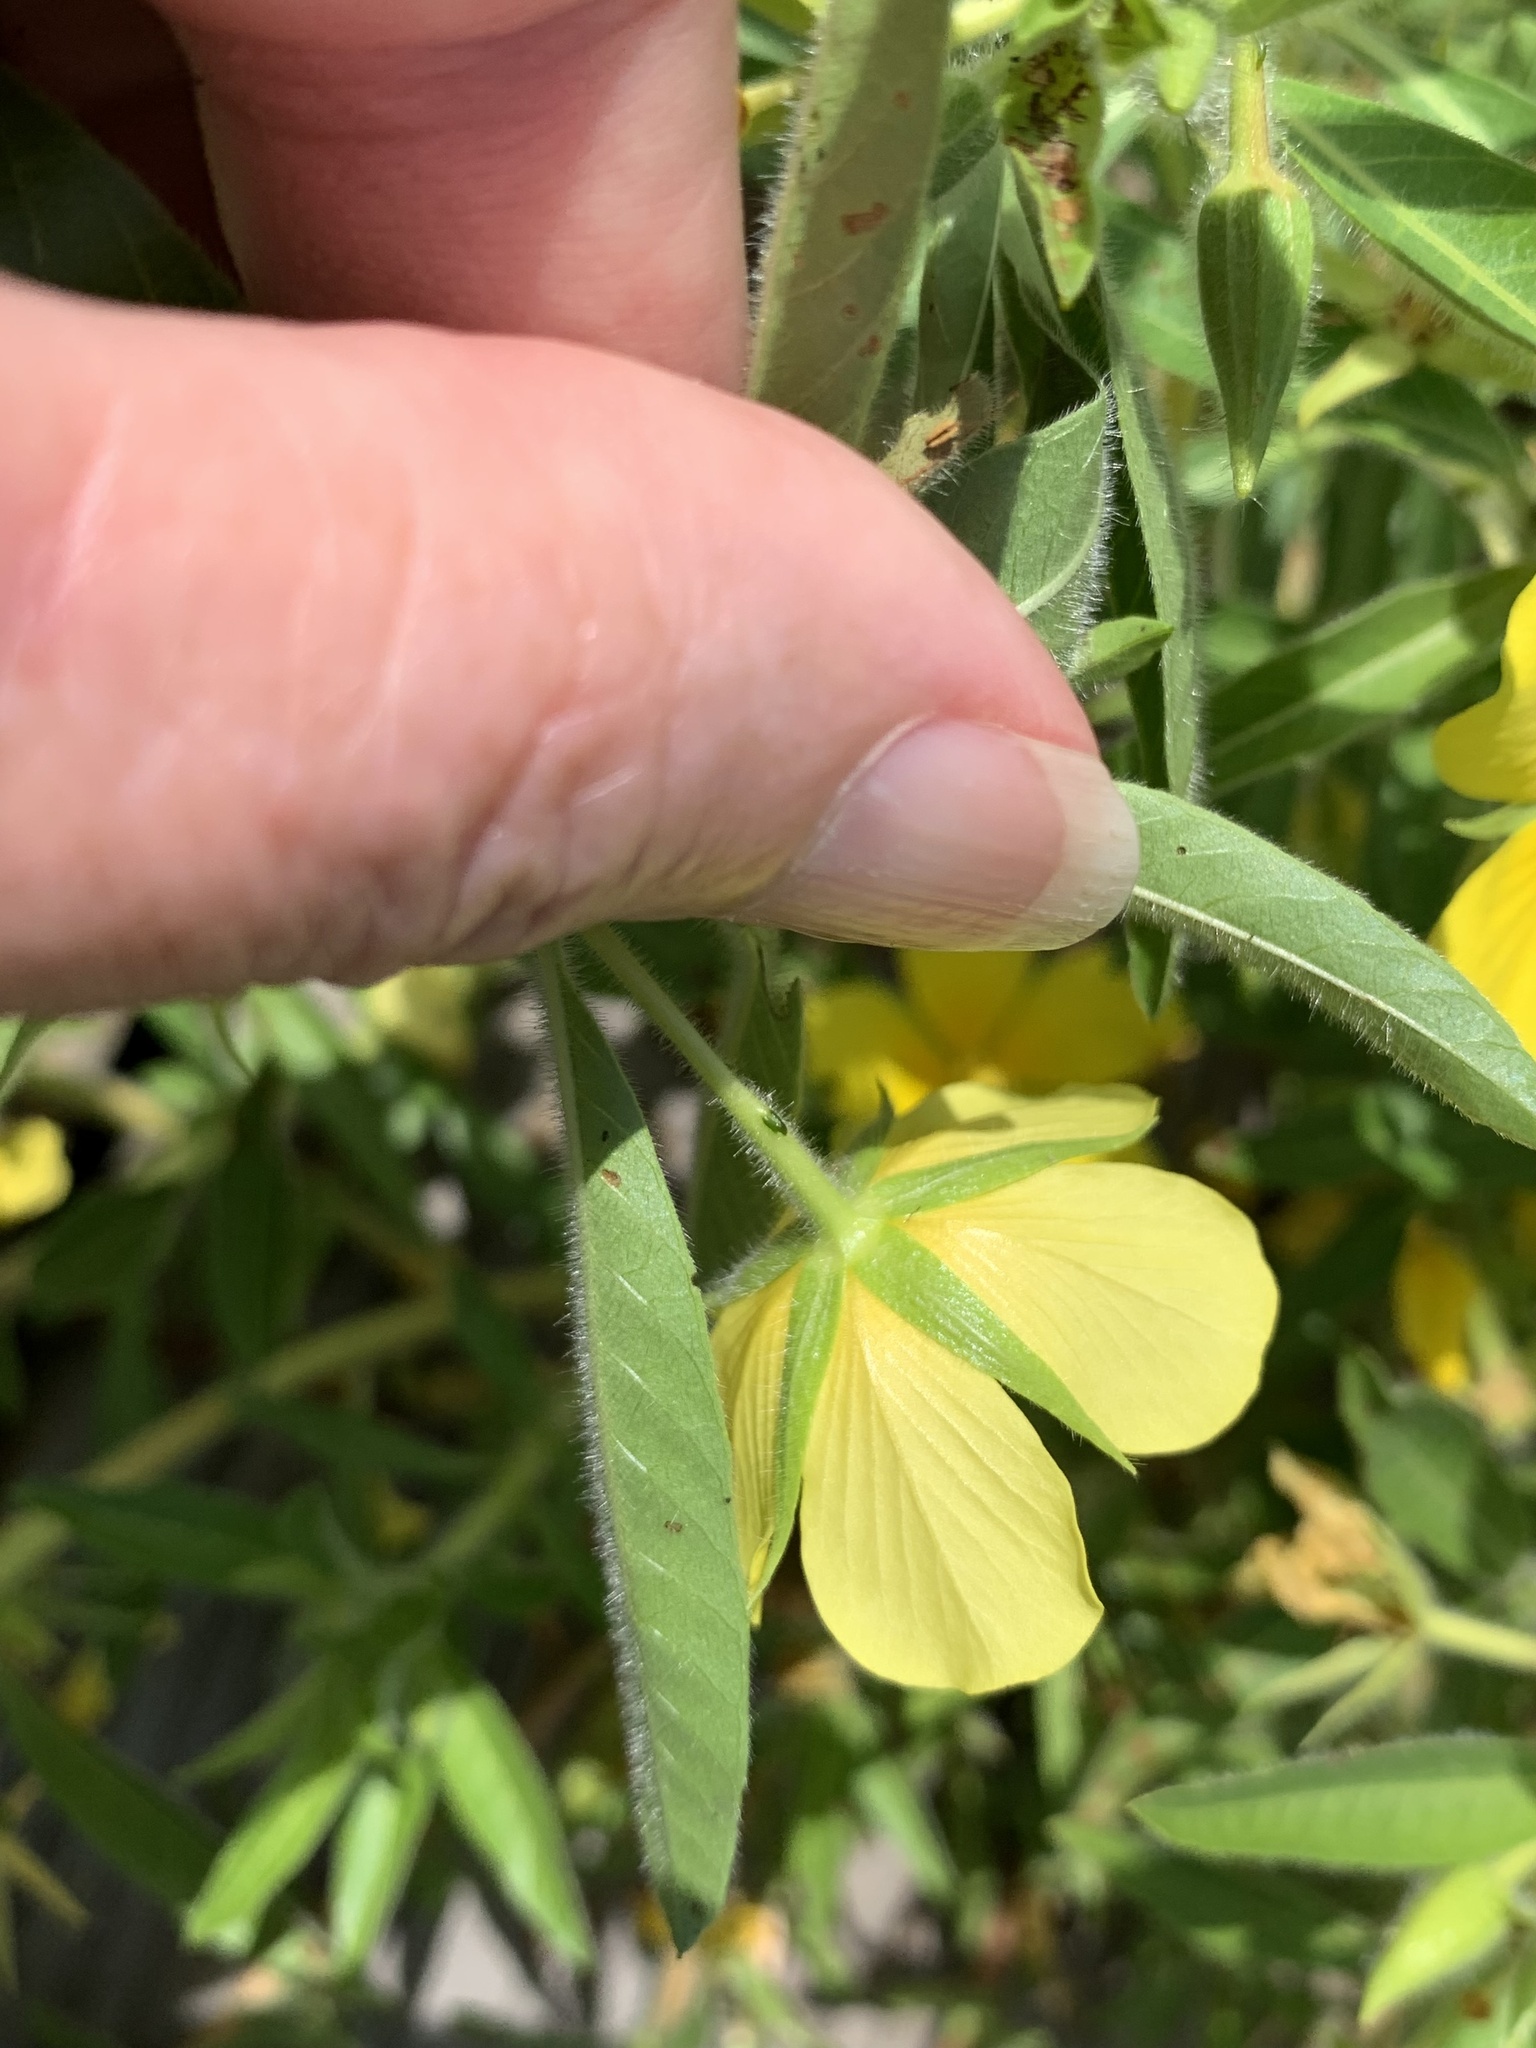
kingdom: Plantae
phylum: Tracheophyta
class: Magnoliopsida
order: Myrtales
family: Onagraceae
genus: Ludwigia
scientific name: Ludwigia grandiflora
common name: Water primrose
